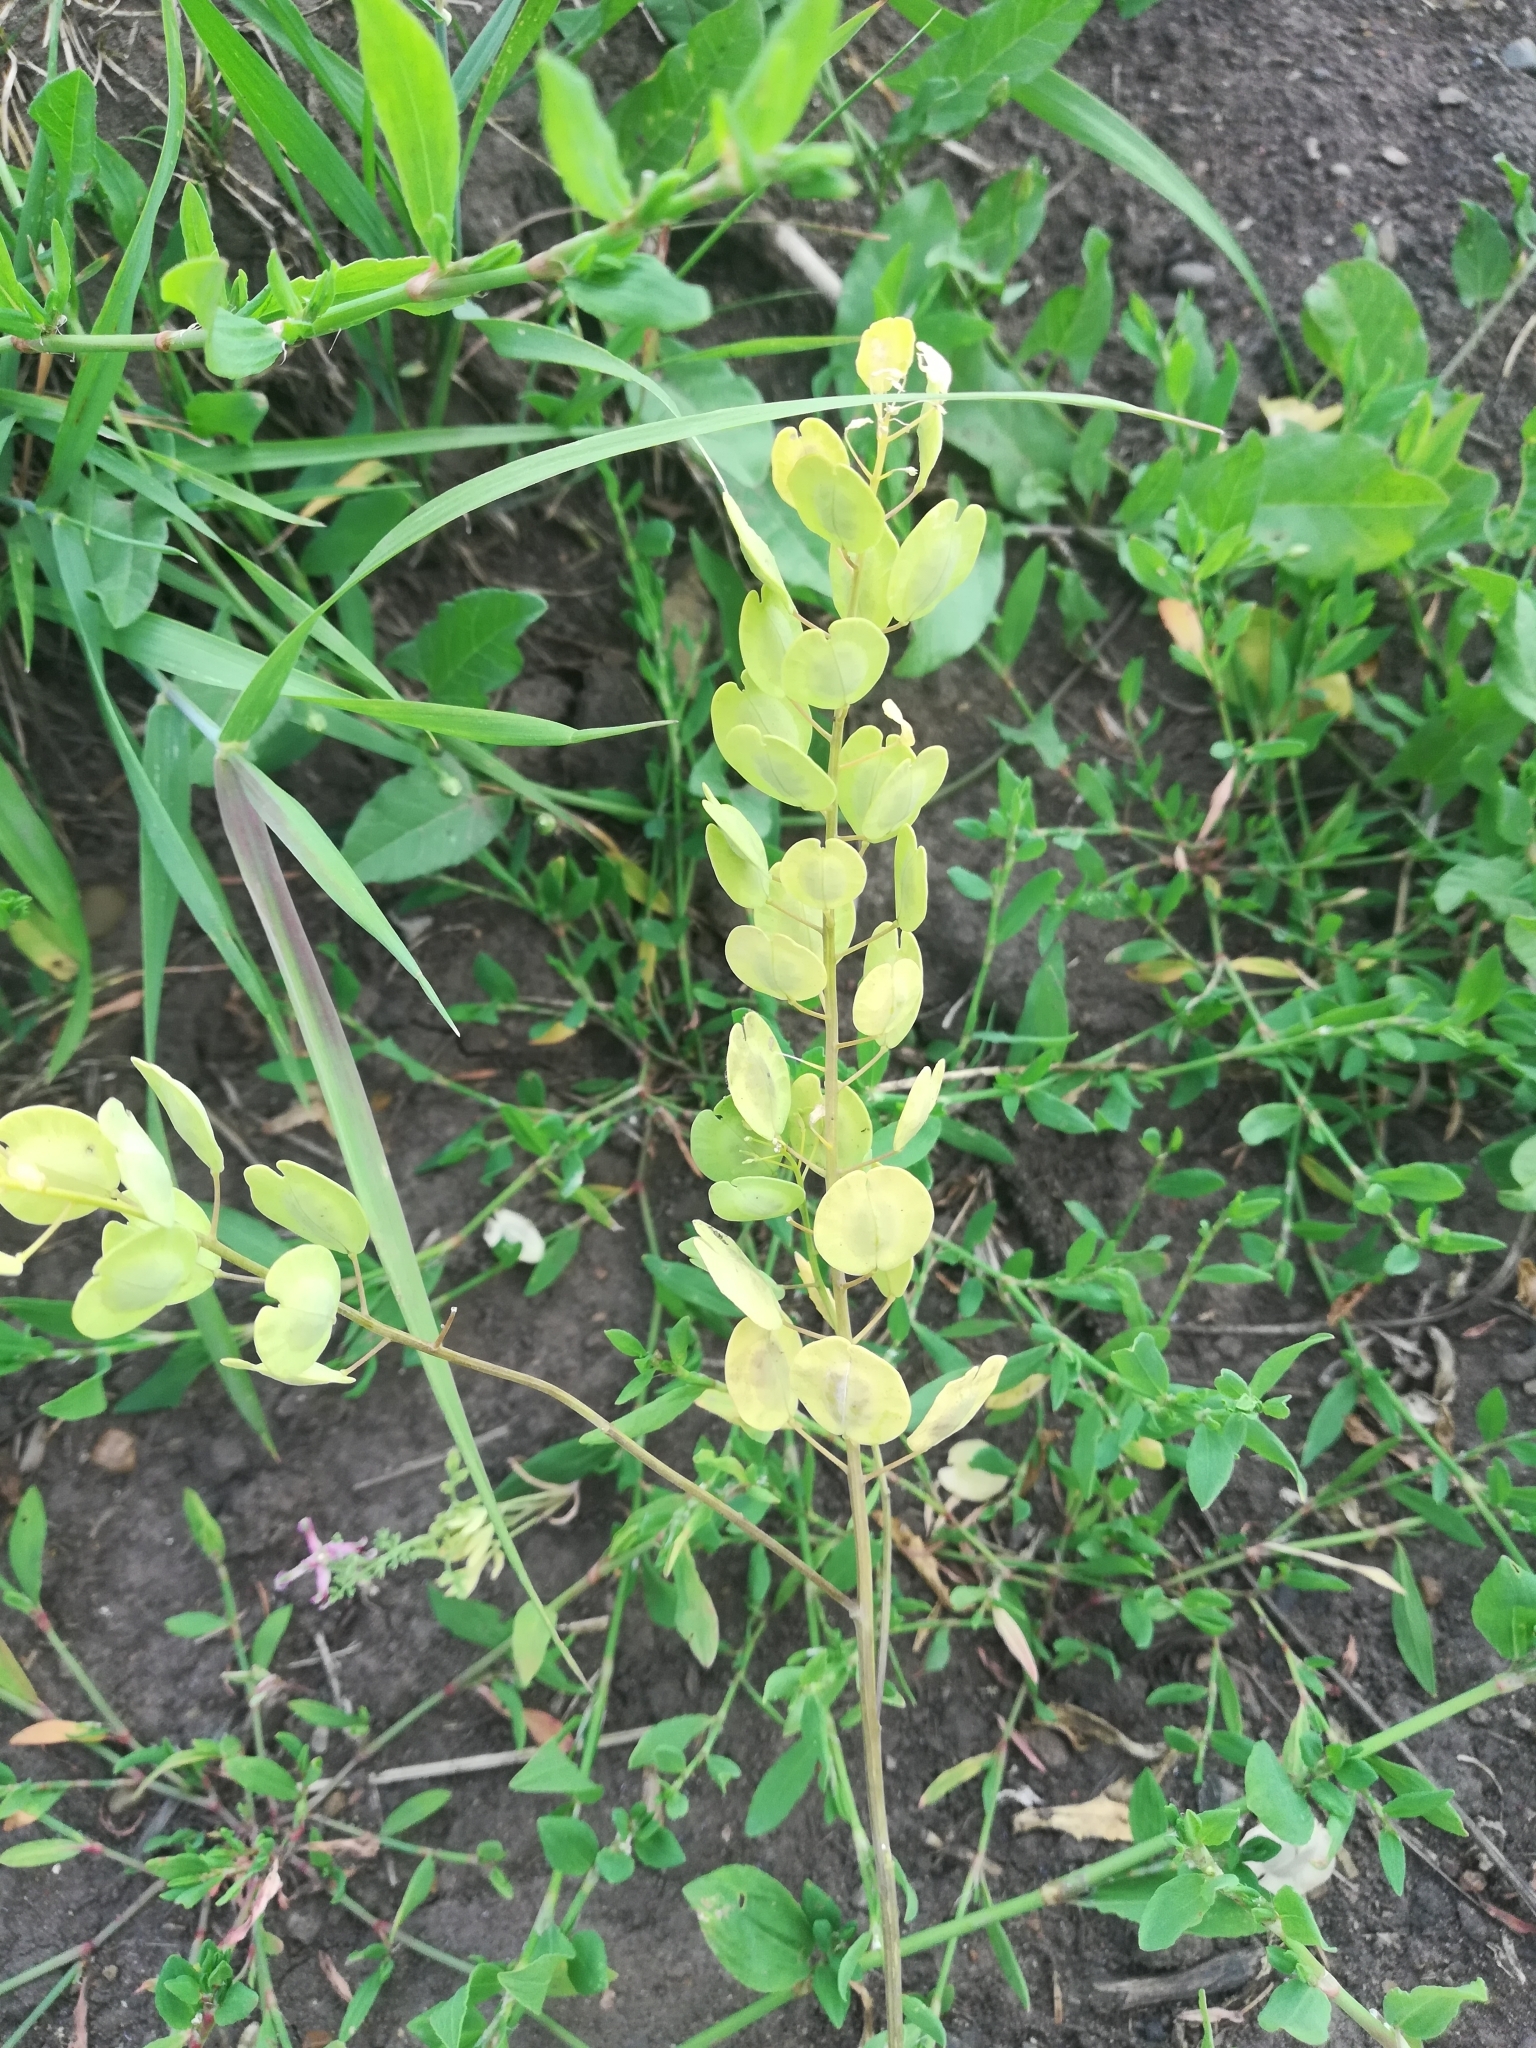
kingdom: Plantae
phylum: Tracheophyta
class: Magnoliopsida
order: Brassicales
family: Brassicaceae
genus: Thlaspi
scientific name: Thlaspi arvense
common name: Field pennycress
